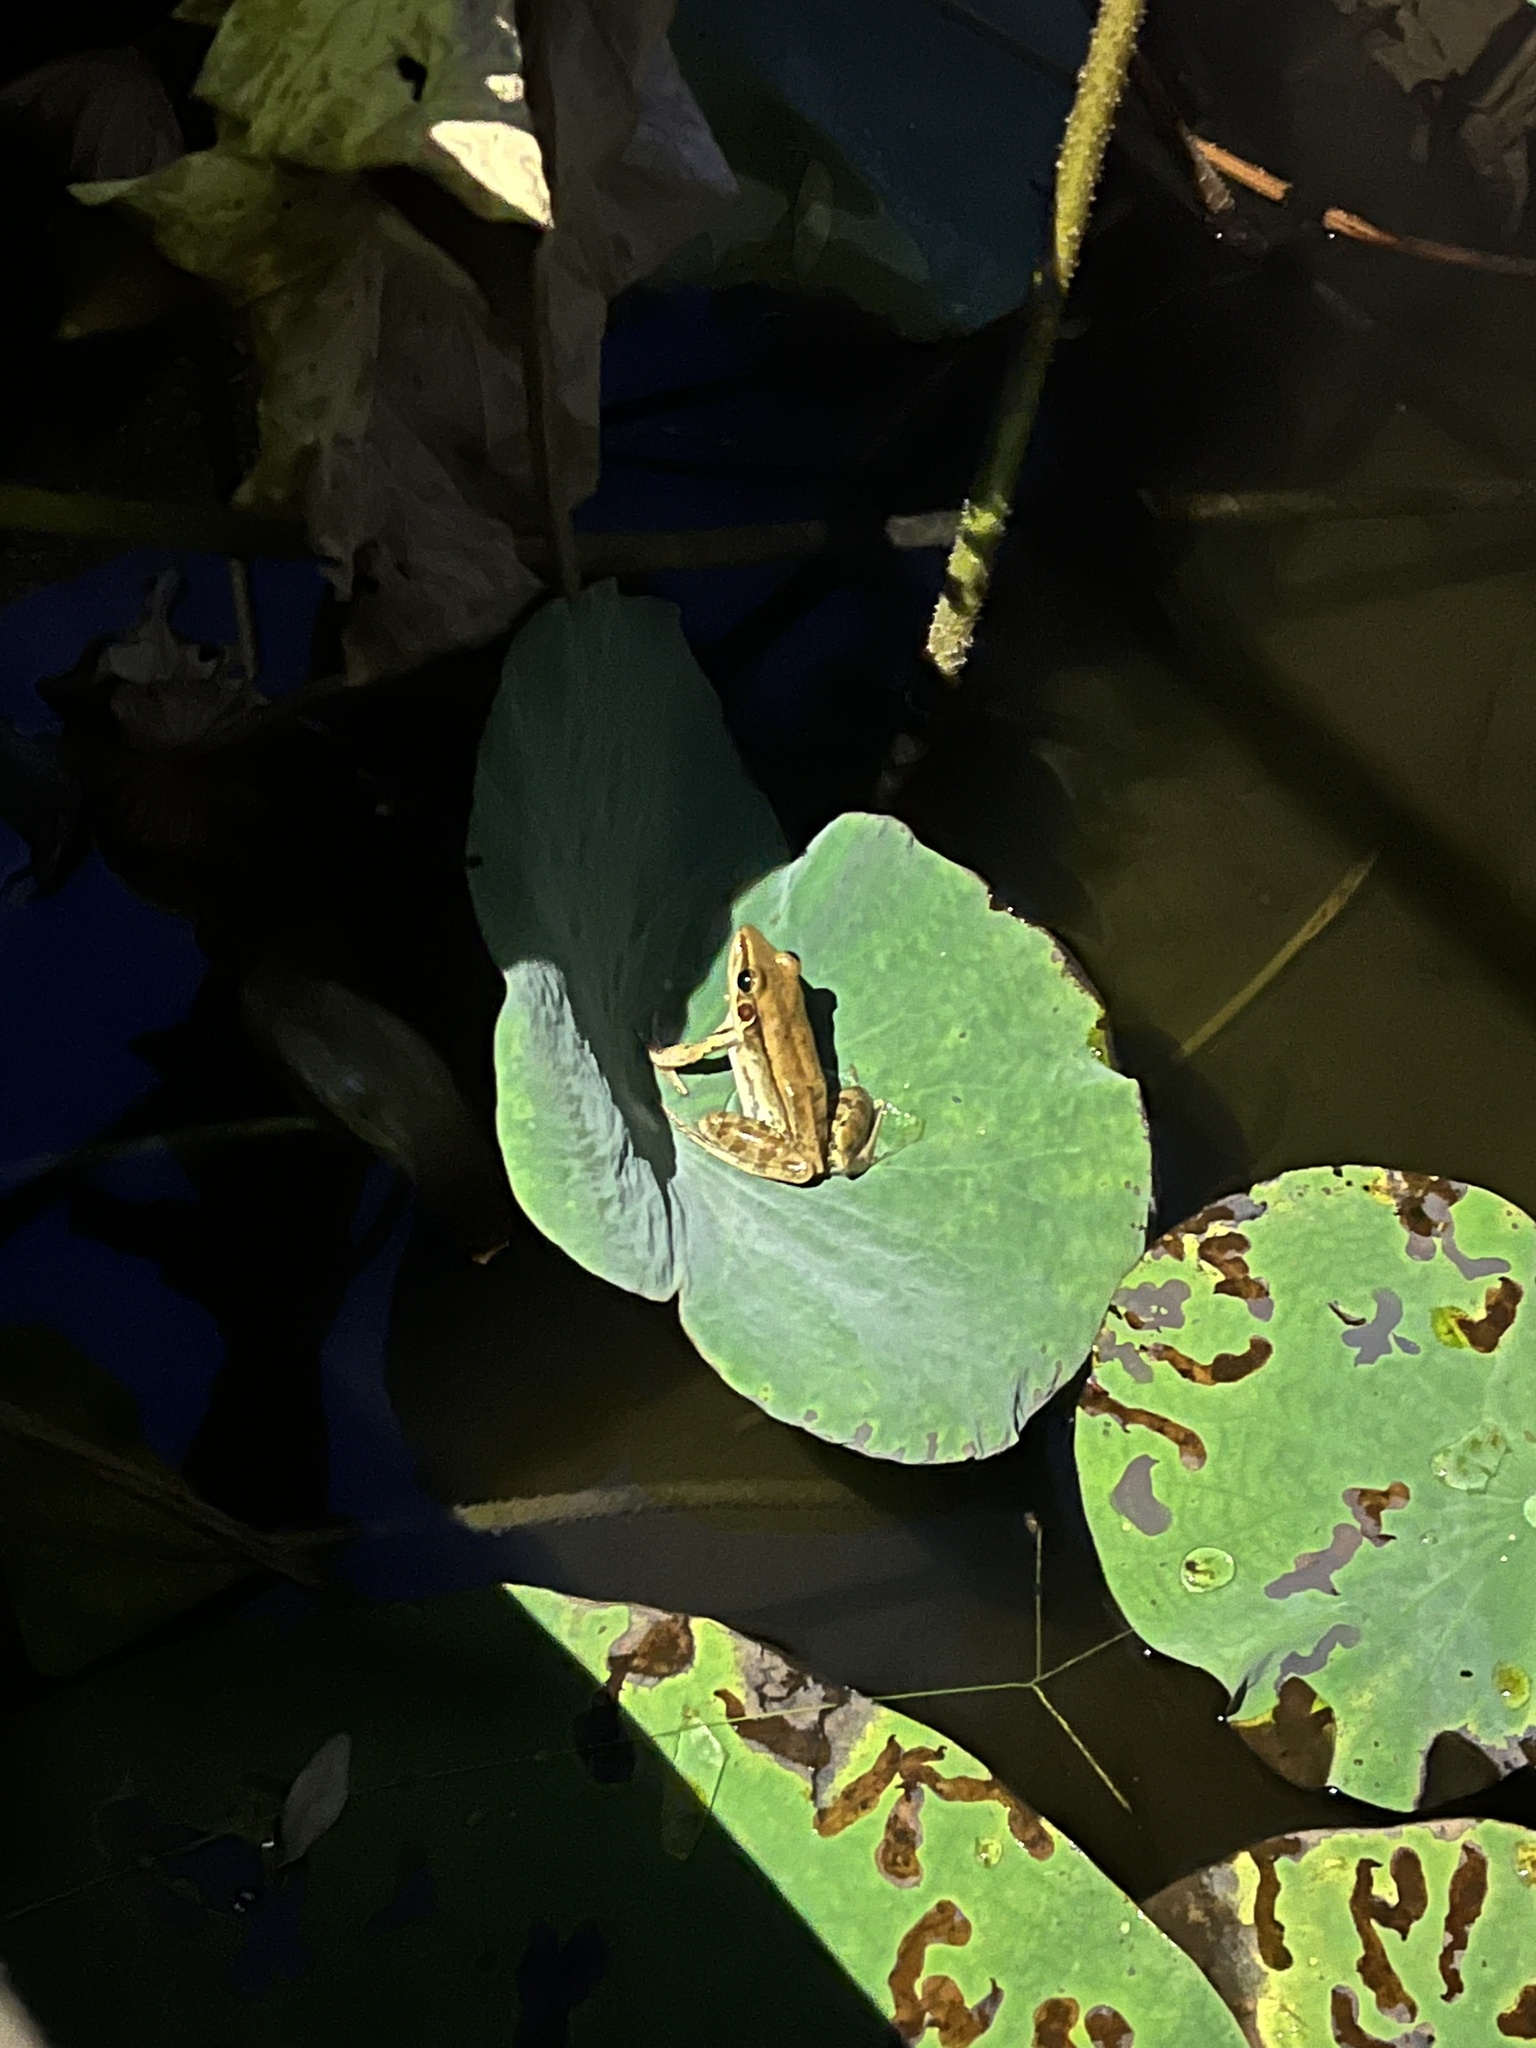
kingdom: Animalia
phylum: Chordata
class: Amphibia
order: Anura
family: Ranidae
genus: Sylvirana
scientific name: Sylvirana guentheri
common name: Guenther's amoy frog
